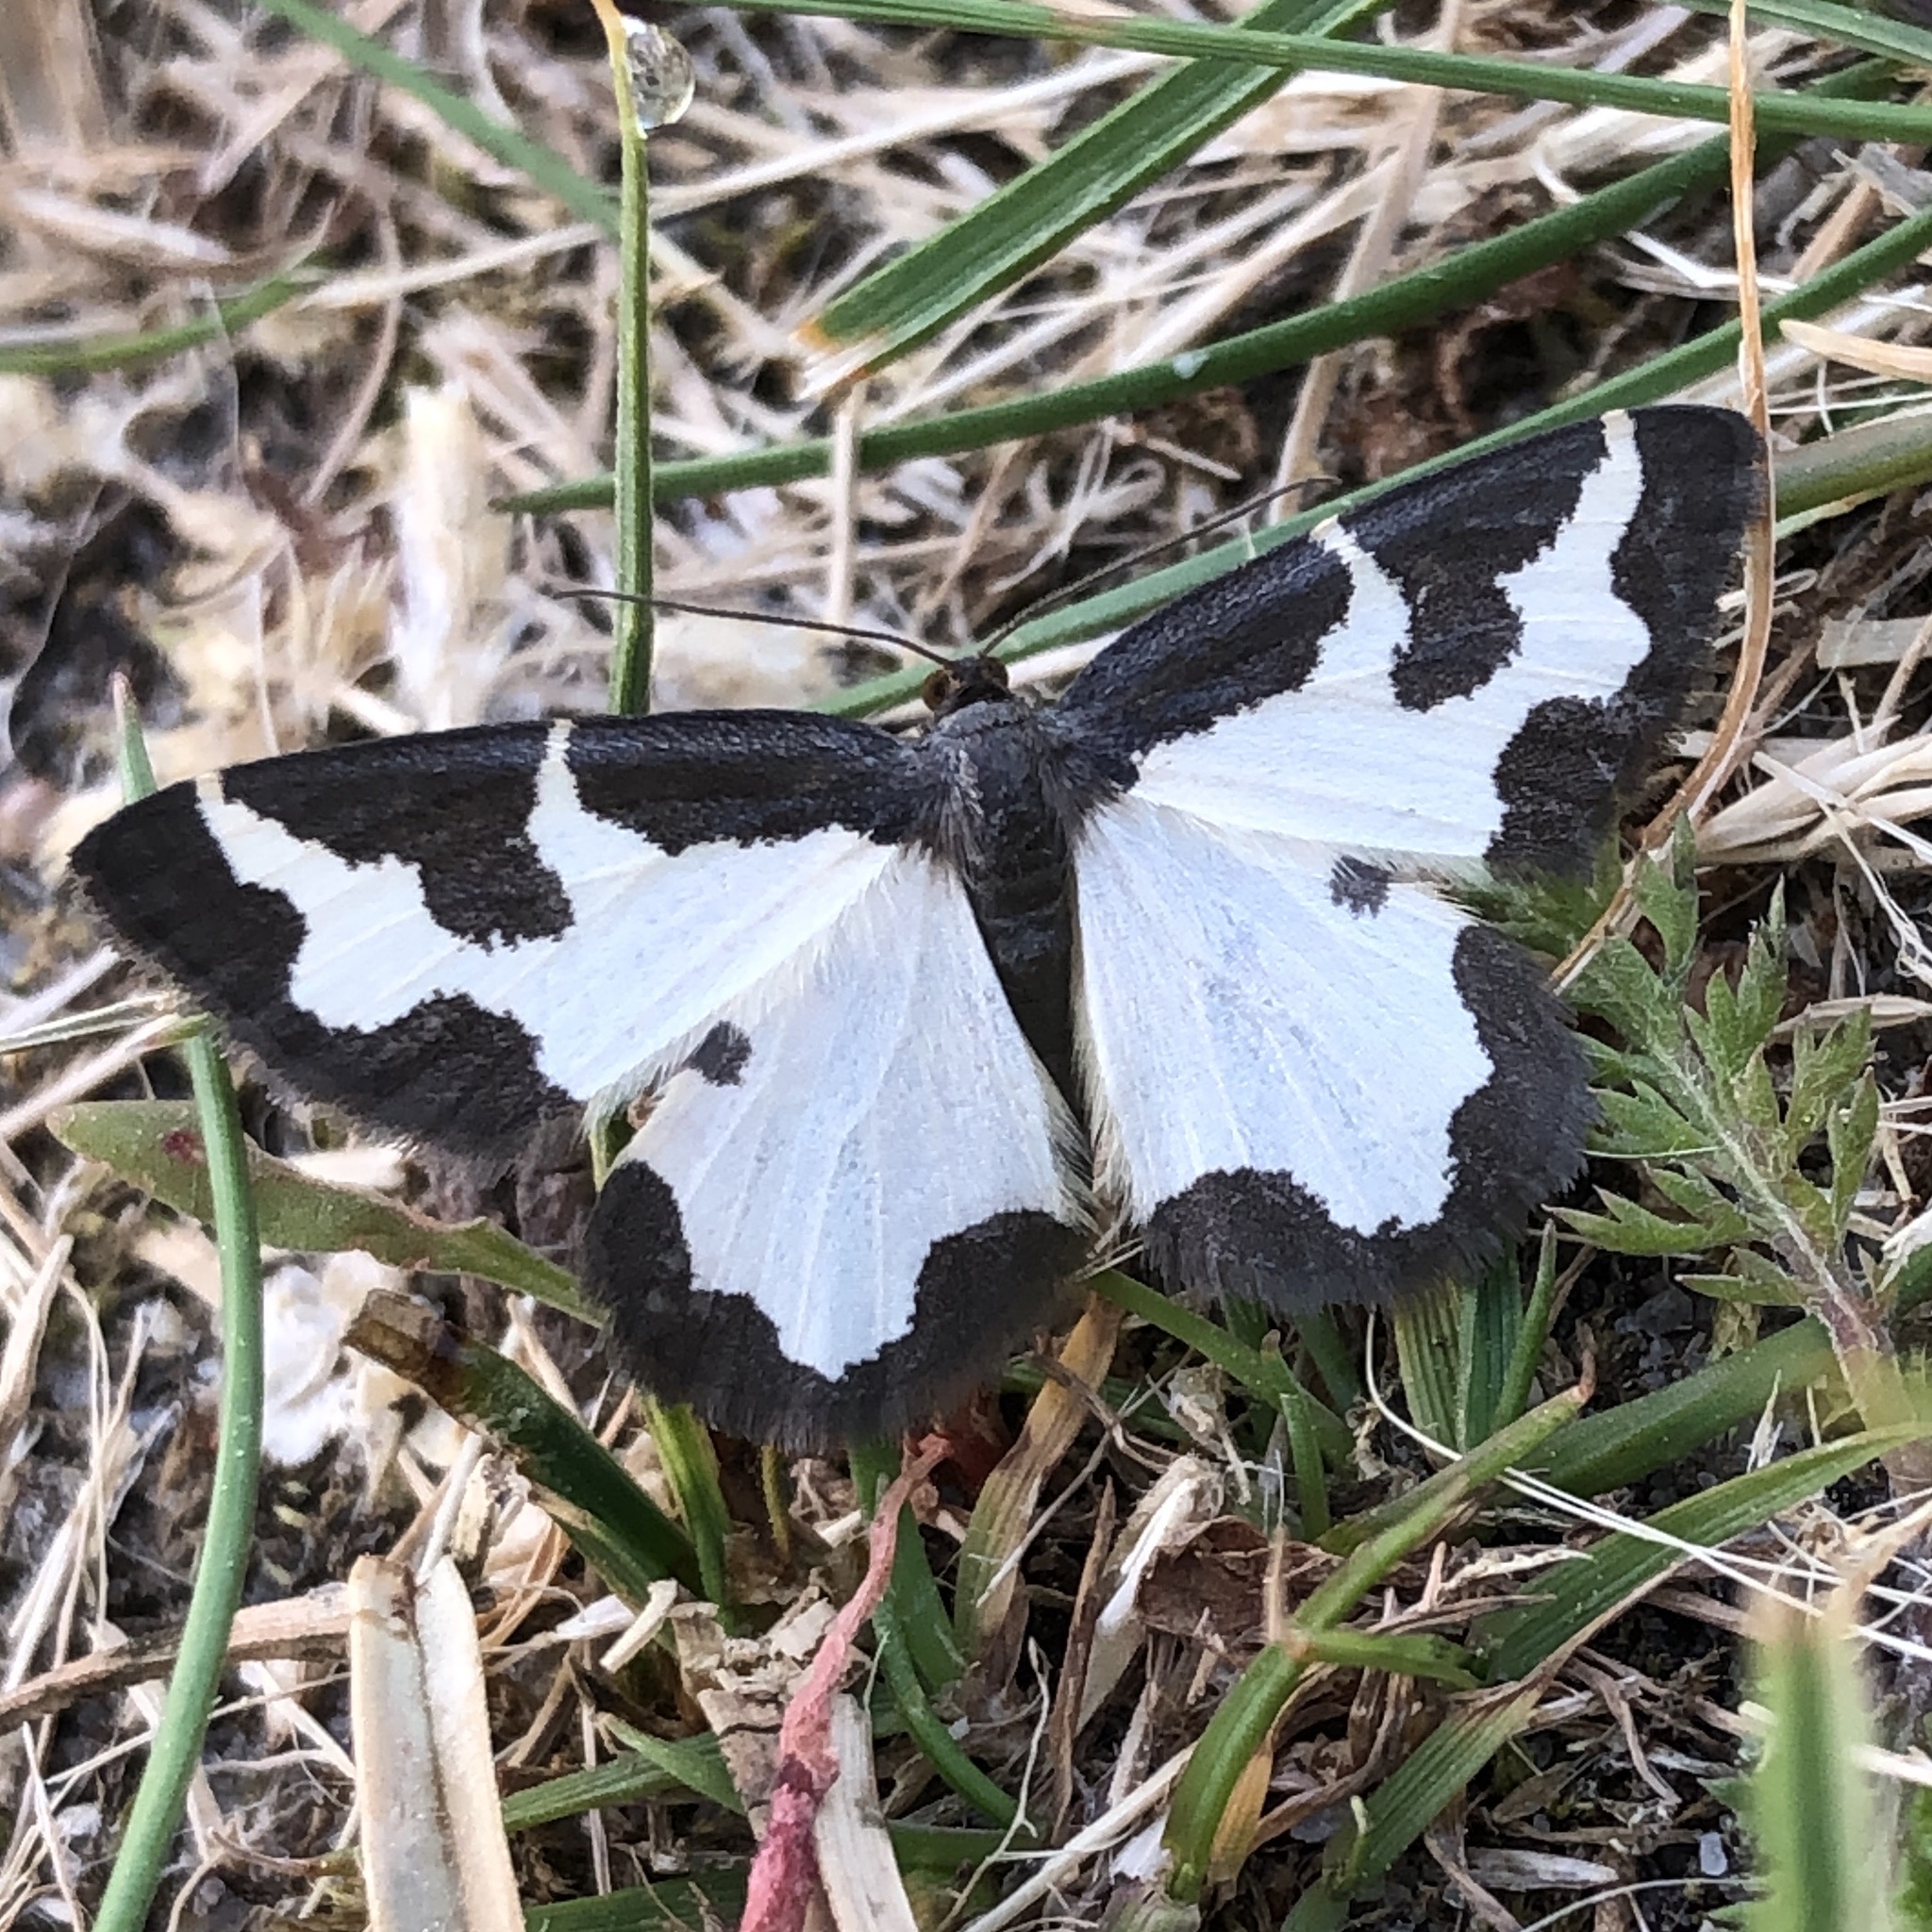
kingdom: Animalia
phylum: Arthropoda
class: Insecta
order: Lepidoptera
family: Geometridae
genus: Lomaspilis
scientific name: Lomaspilis marginata
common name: Clouded border
